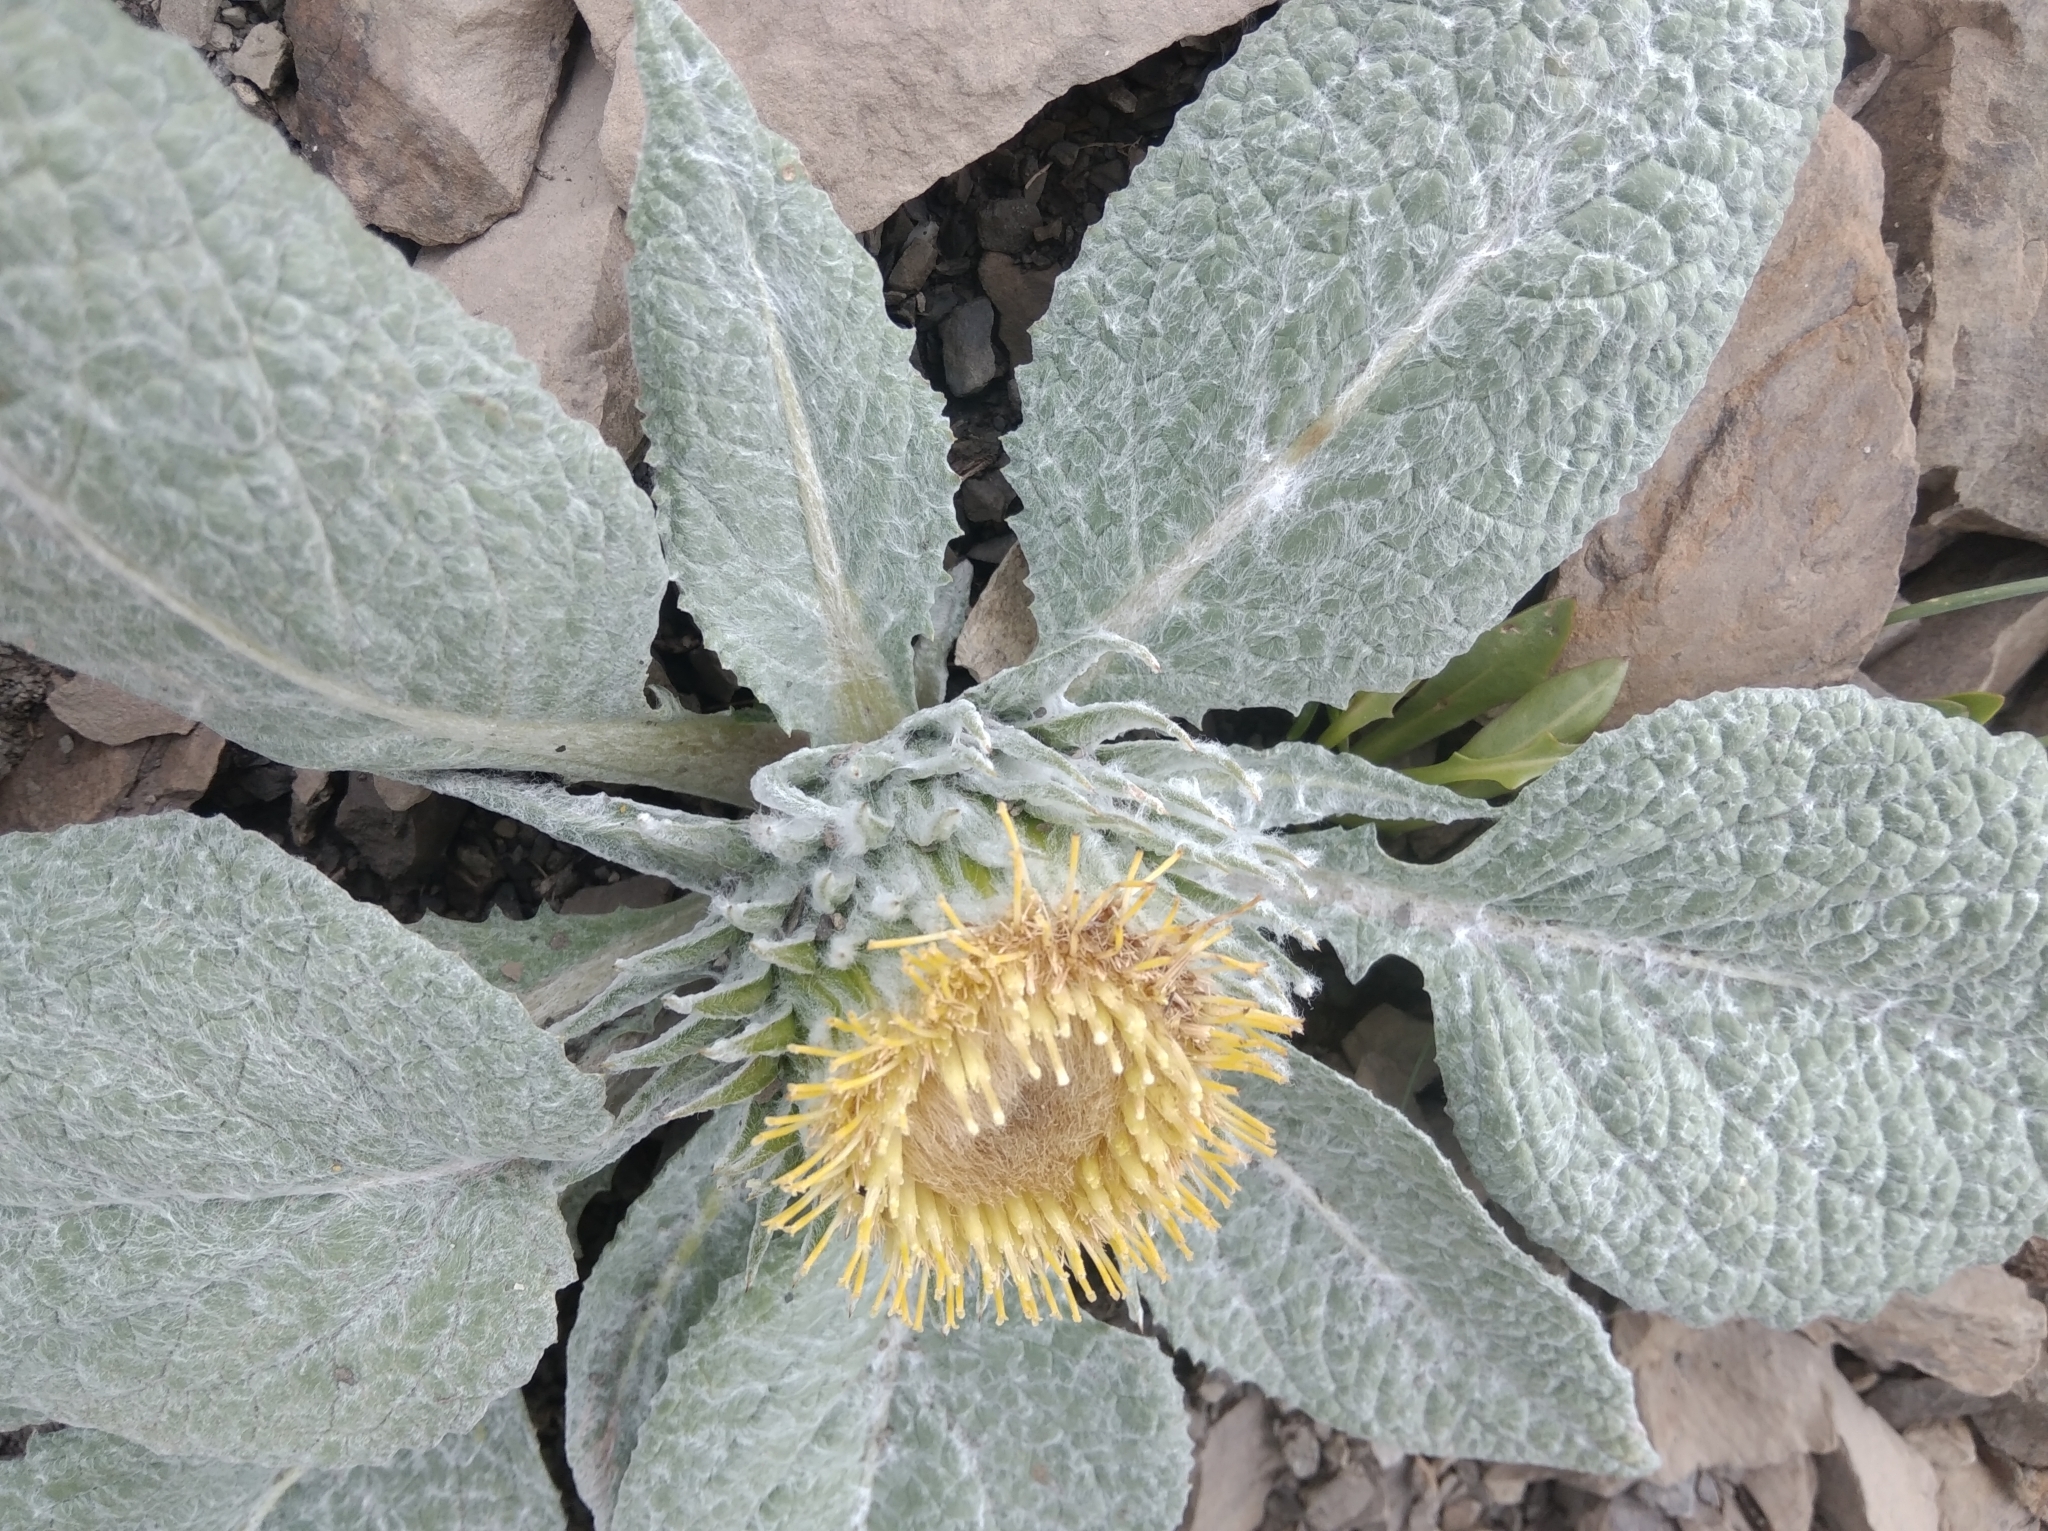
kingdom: Plantae
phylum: Tracheophyta
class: Magnoliopsida
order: Asterales
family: Asteraceae
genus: Berardia
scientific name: Berardia lanuginosa
